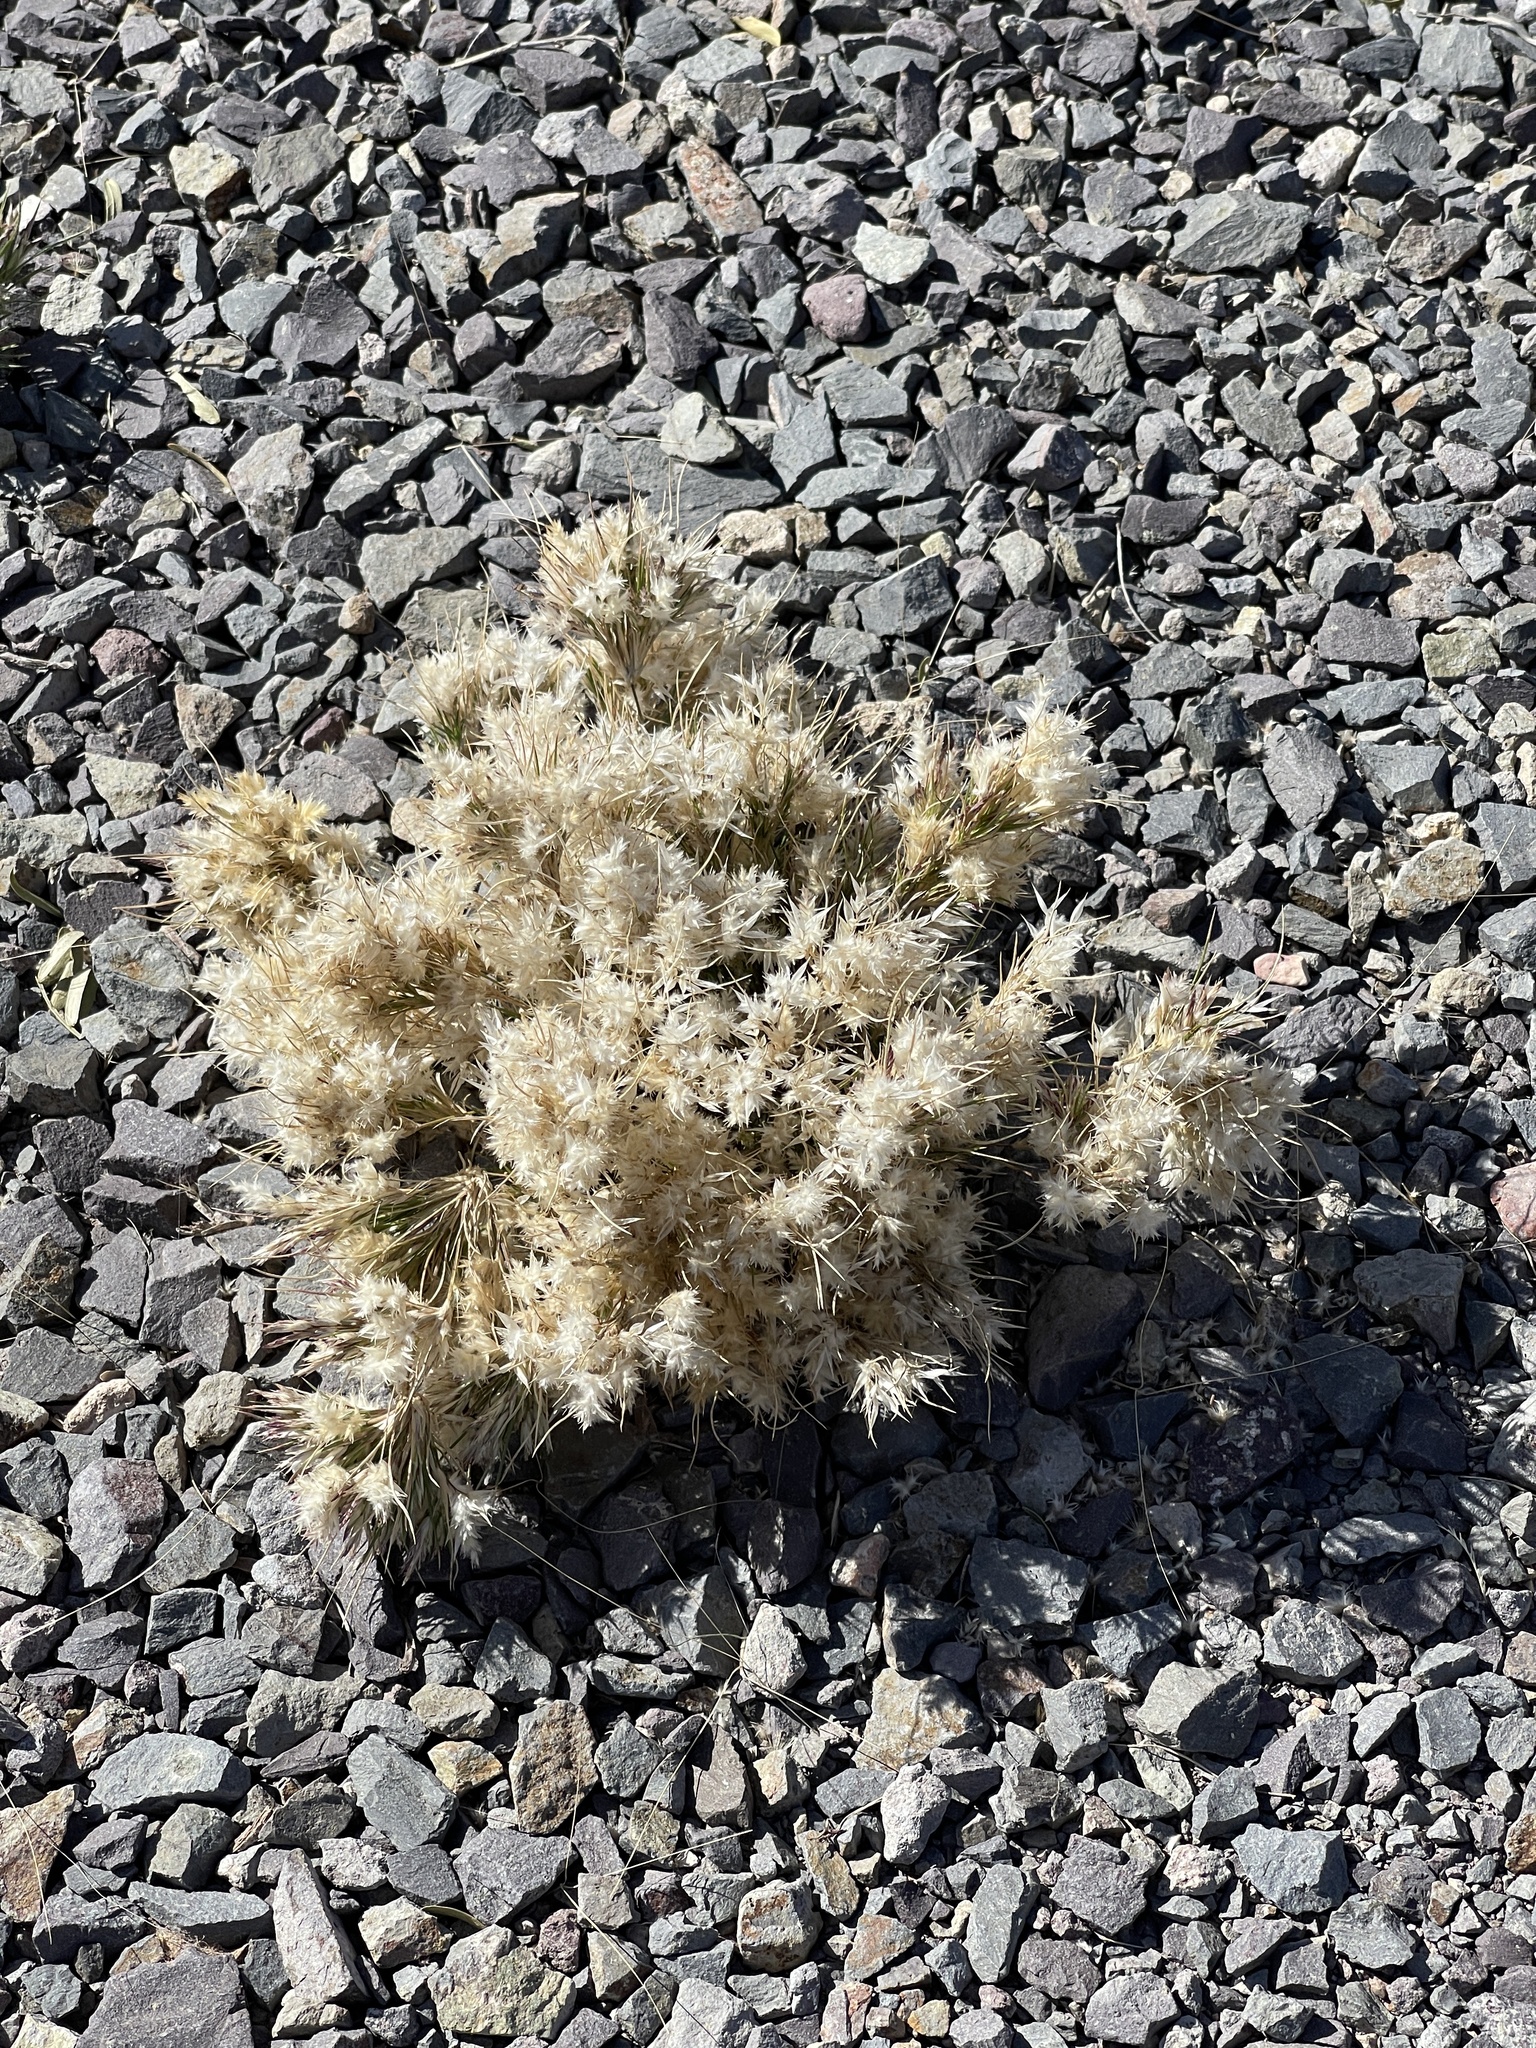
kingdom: Plantae
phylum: Tracheophyta
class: Liliopsida
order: Poales
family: Poaceae
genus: Dasyochloa
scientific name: Dasyochloa pulchella
